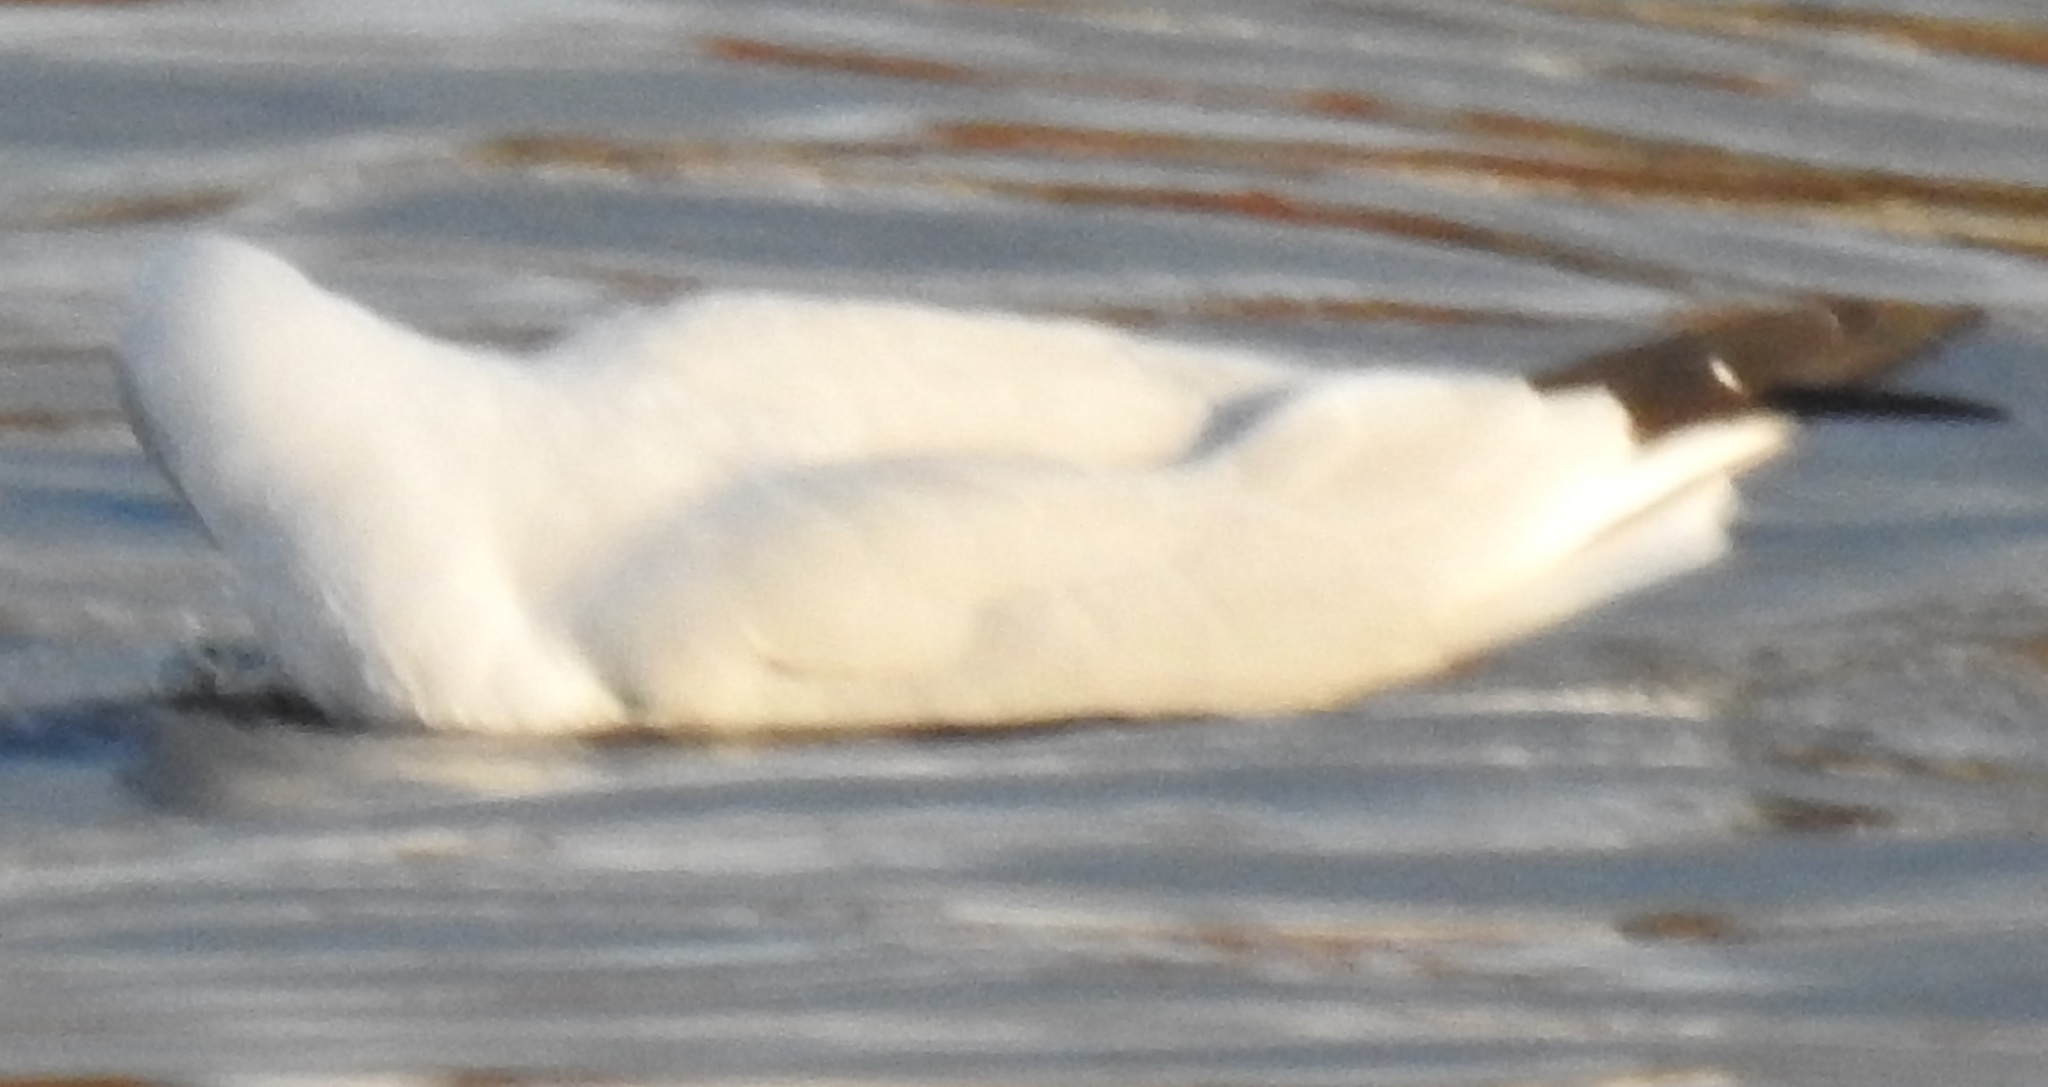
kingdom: Animalia
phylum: Chordata
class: Aves
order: Charadriiformes
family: Laridae
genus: Chroicocephalus
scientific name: Chroicocephalus ridibundus
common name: Black-headed gull
